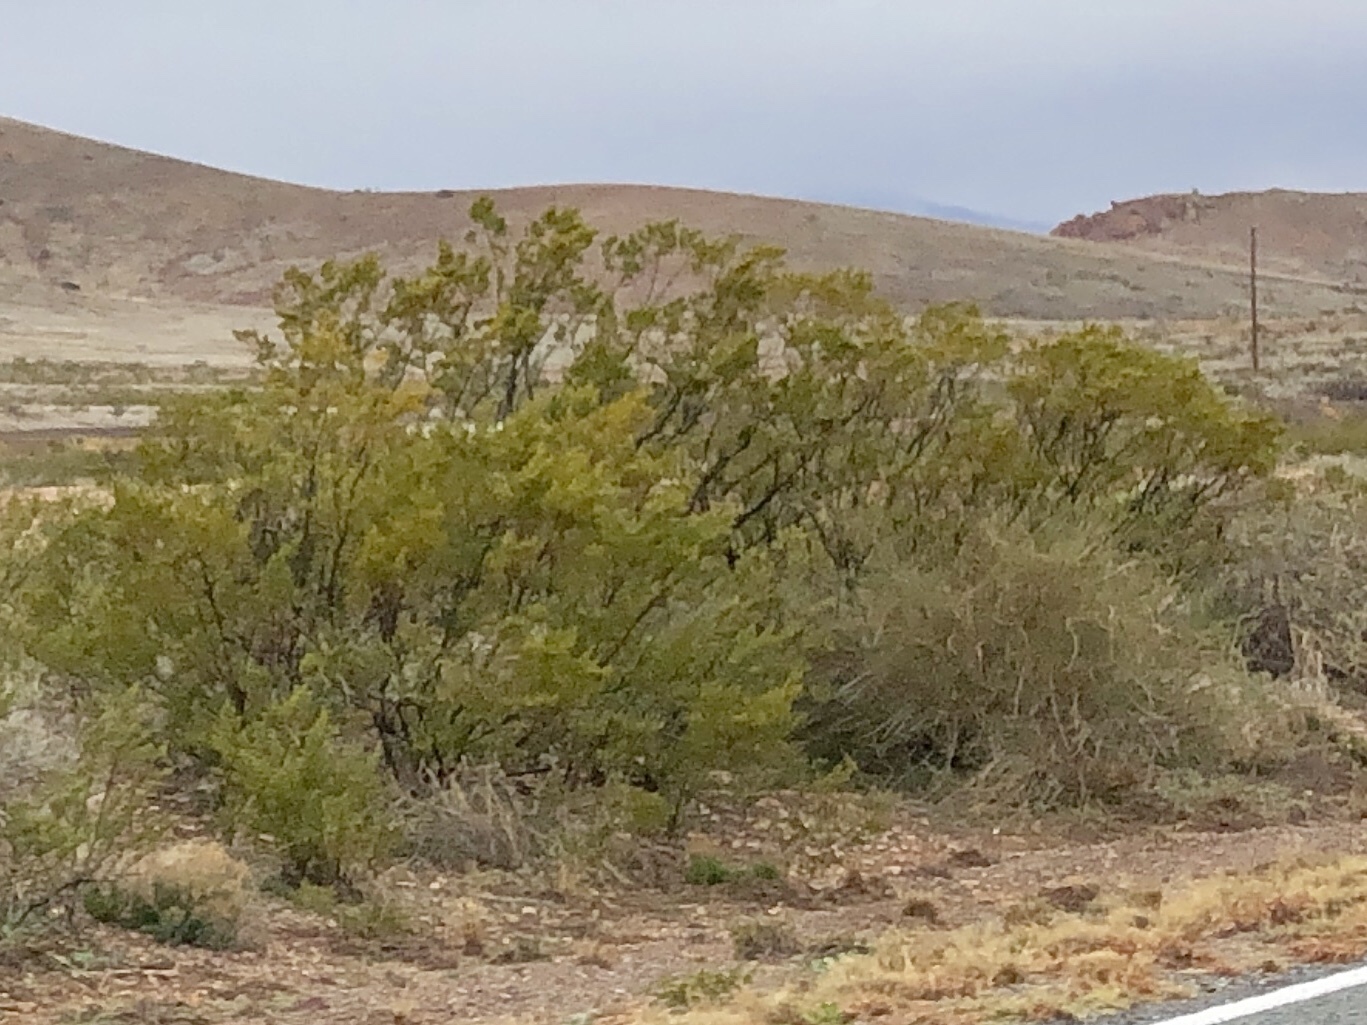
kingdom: Plantae
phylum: Tracheophyta
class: Magnoliopsida
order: Zygophyllales
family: Zygophyllaceae
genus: Larrea
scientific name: Larrea tridentata
